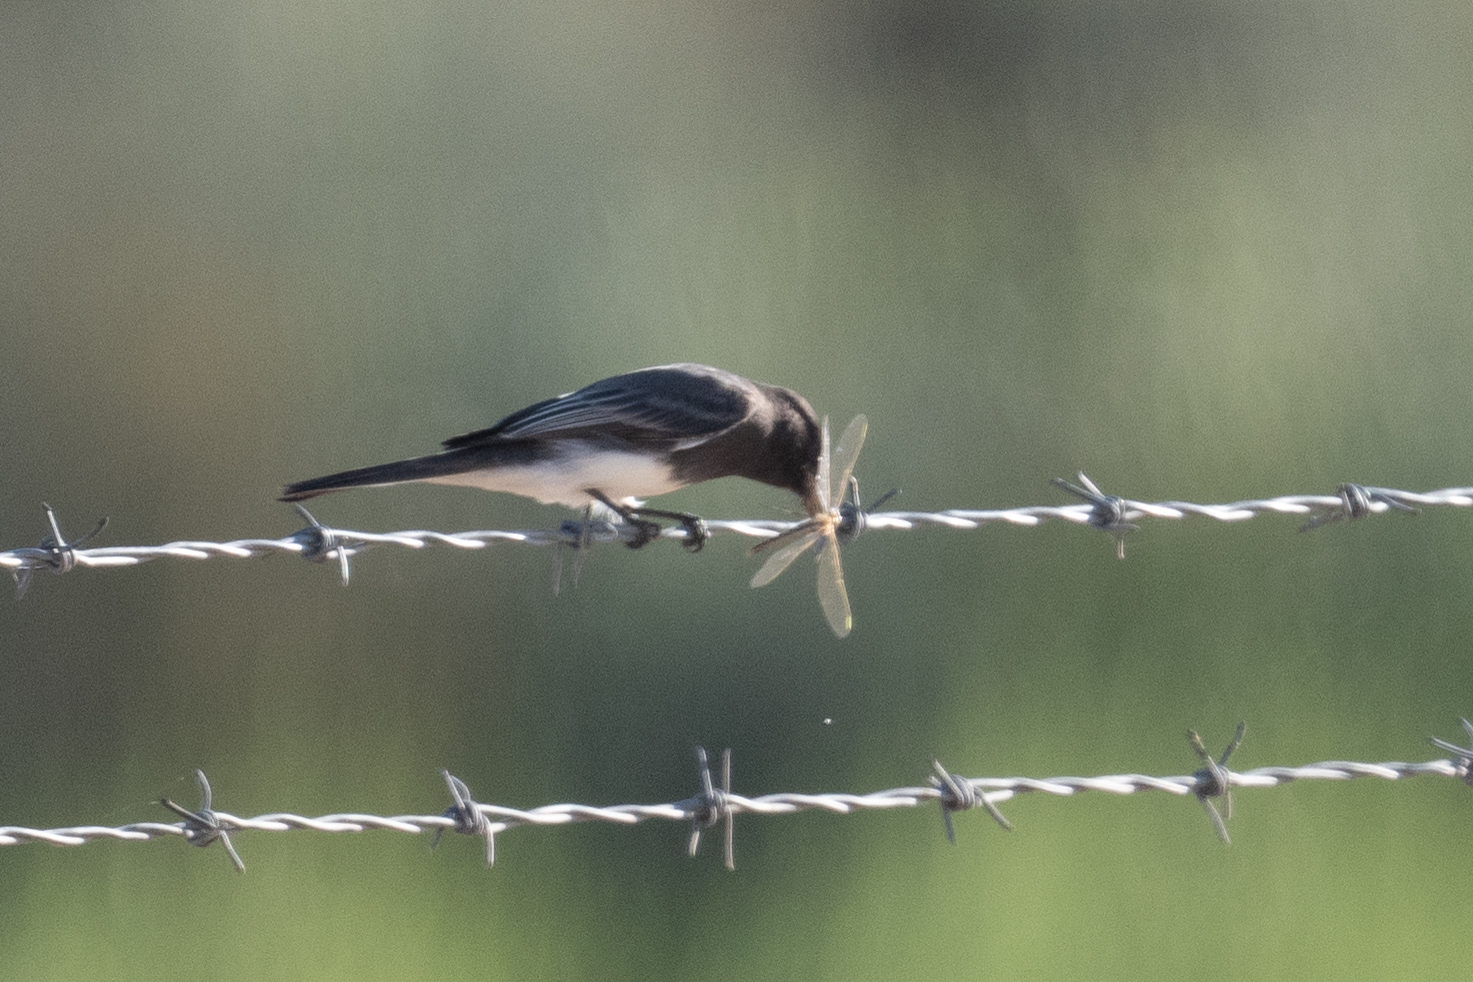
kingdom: Animalia
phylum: Chordata
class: Aves
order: Passeriformes
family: Tyrannidae
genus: Sayornis
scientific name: Sayornis nigricans
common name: Black phoebe
